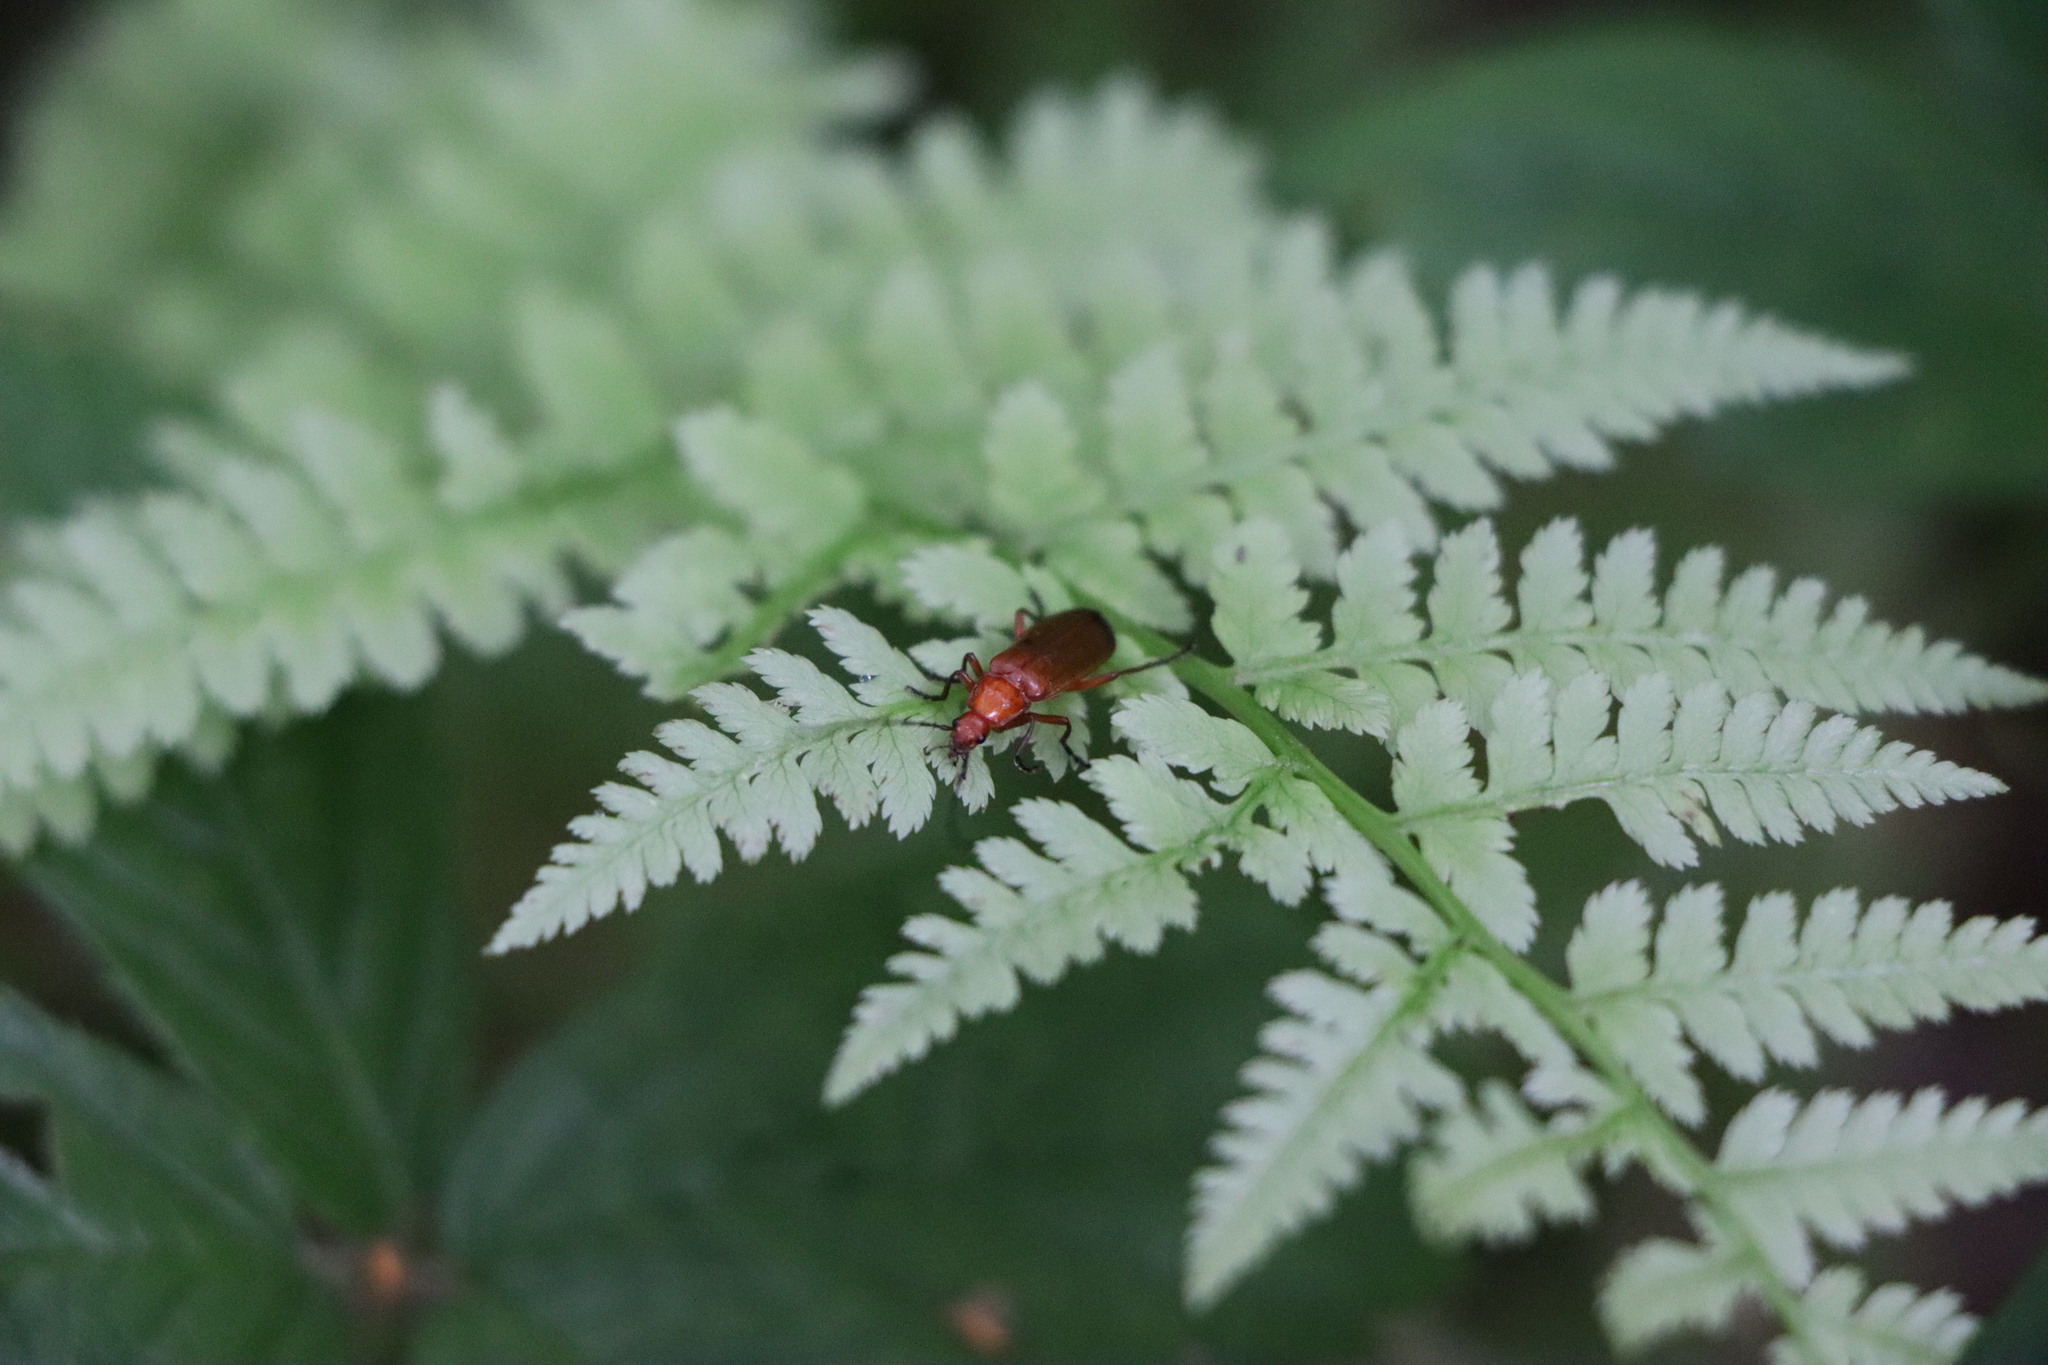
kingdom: Animalia
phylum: Arthropoda
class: Insecta
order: Coleoptera
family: Cantharidae
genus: Rhagonycha
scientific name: Rhagonycha fulva
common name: Common red soldier beetle
